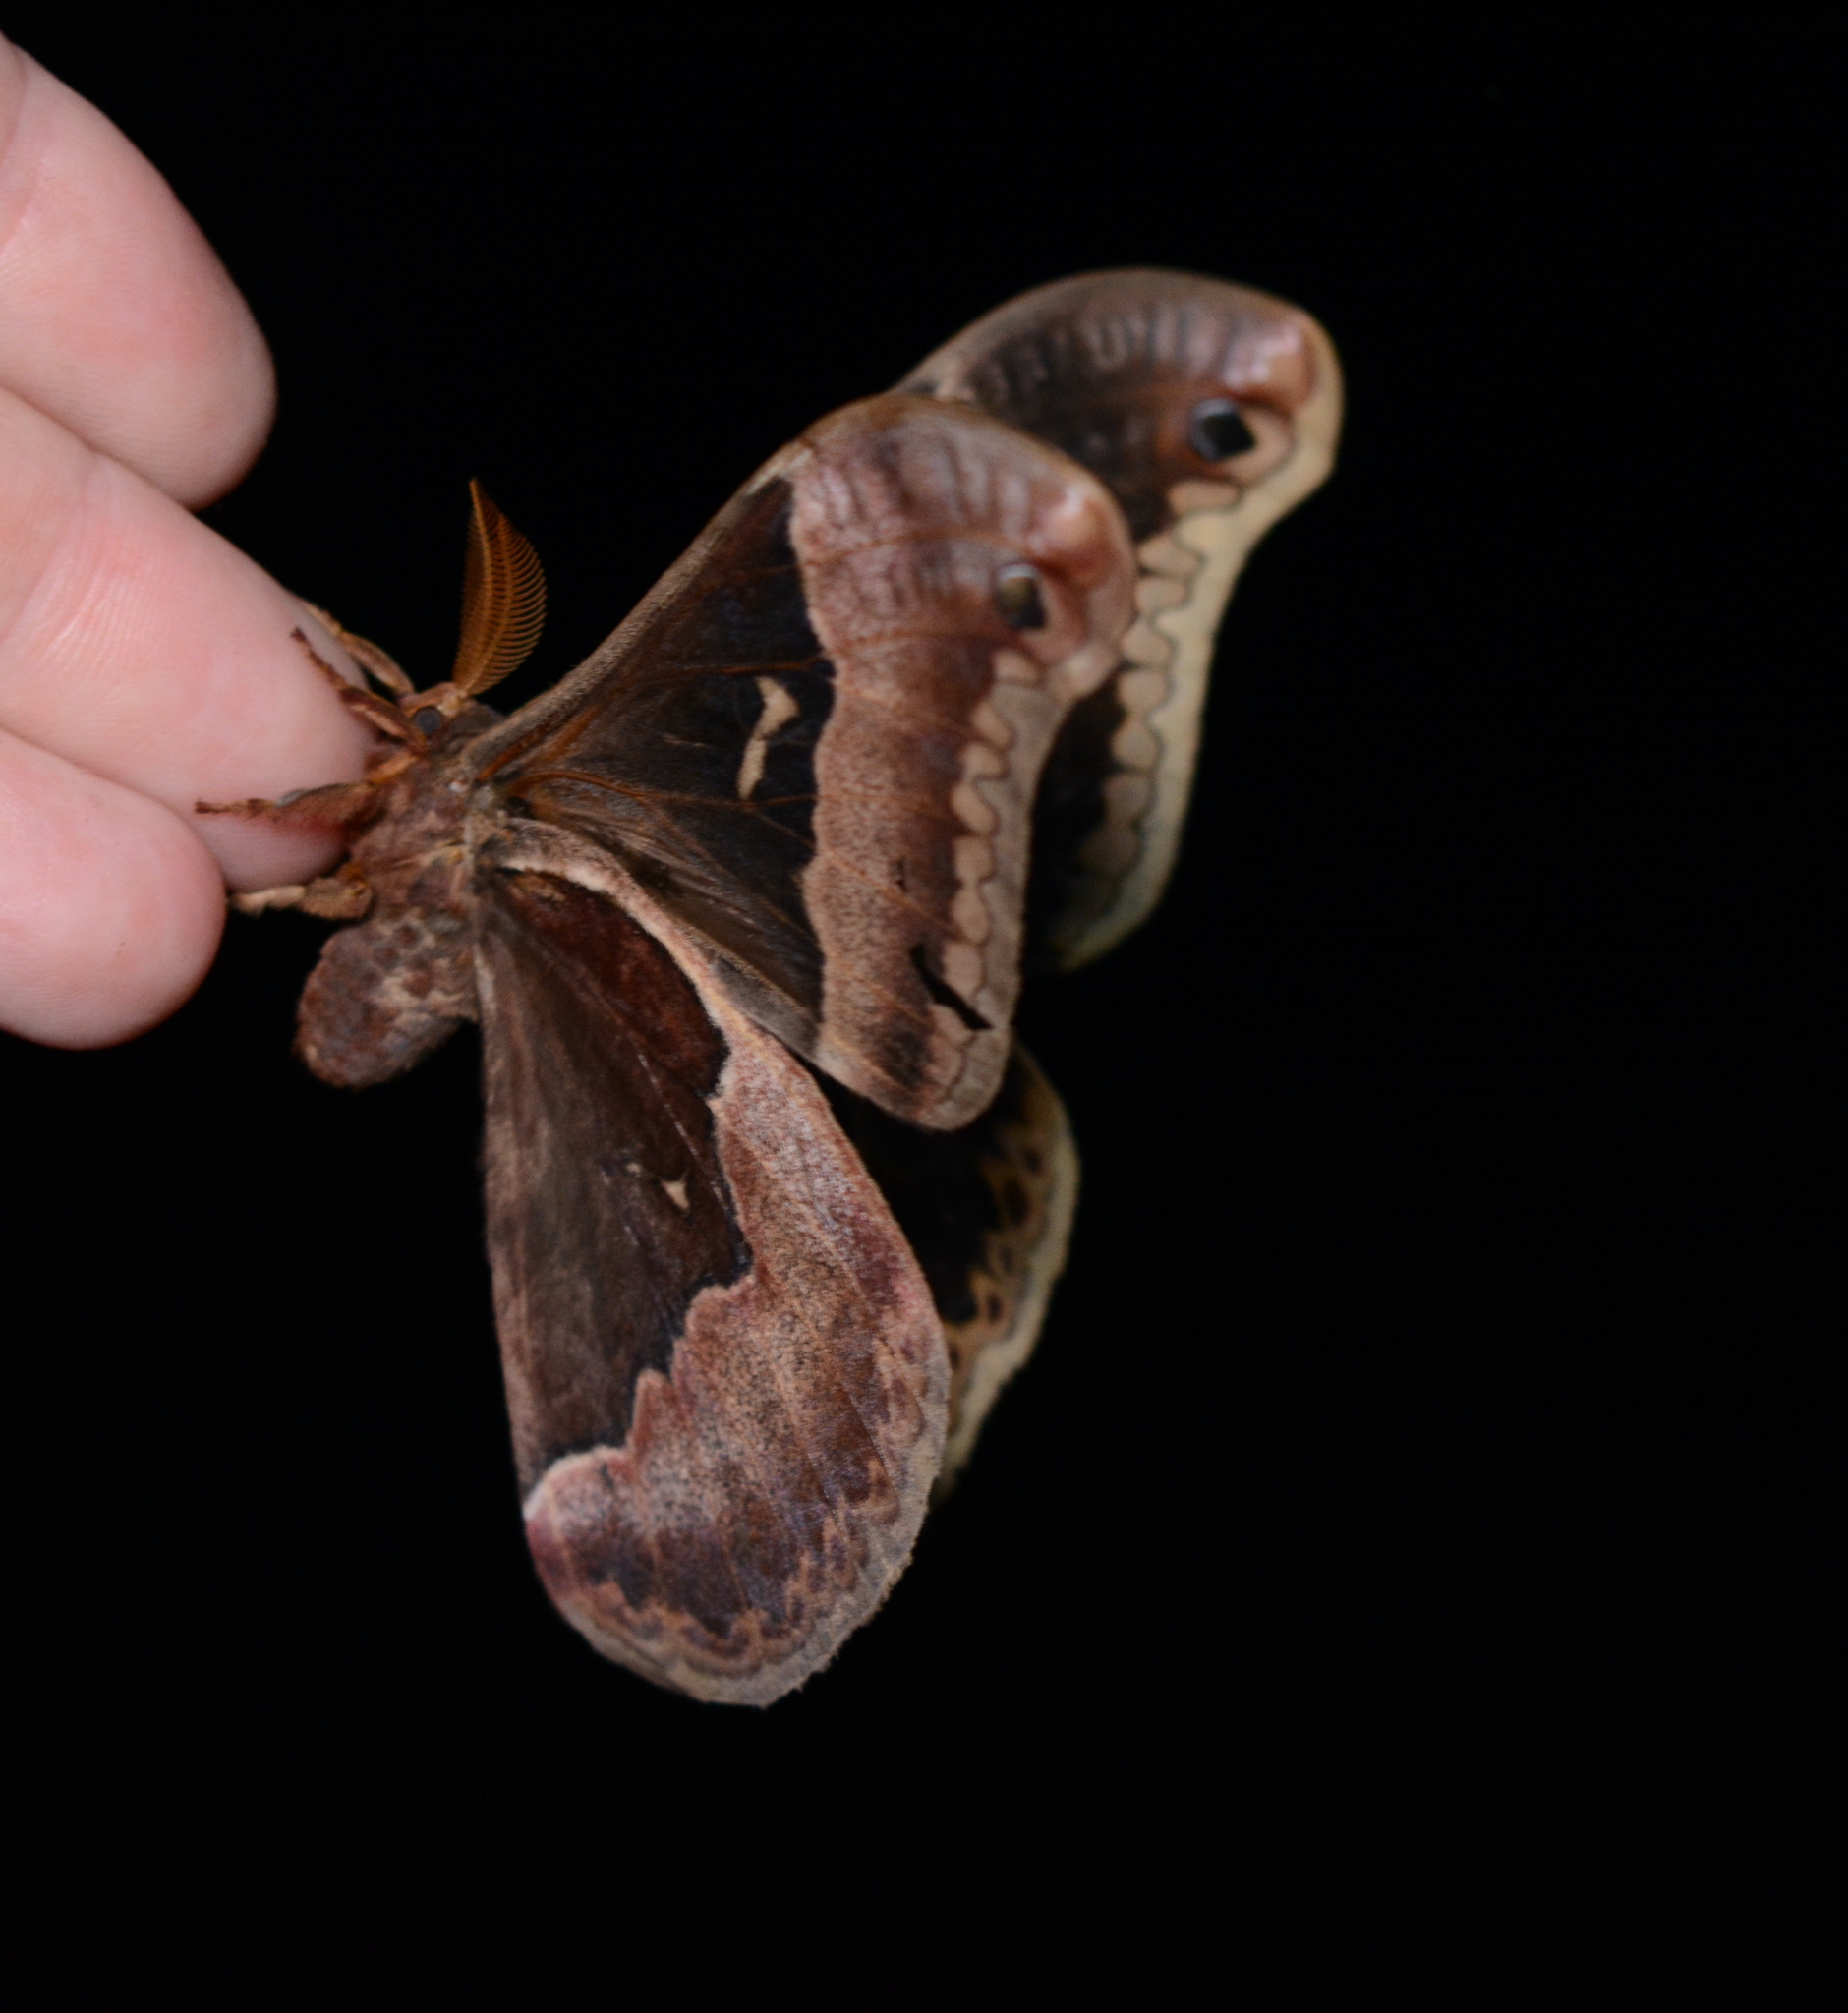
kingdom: Animalia
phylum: Arthropoda
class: Insecta
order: Lepidoptera
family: Saturniidae
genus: Callosamia
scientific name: Callosamia angulifera
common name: Tulip tree silkmoth
